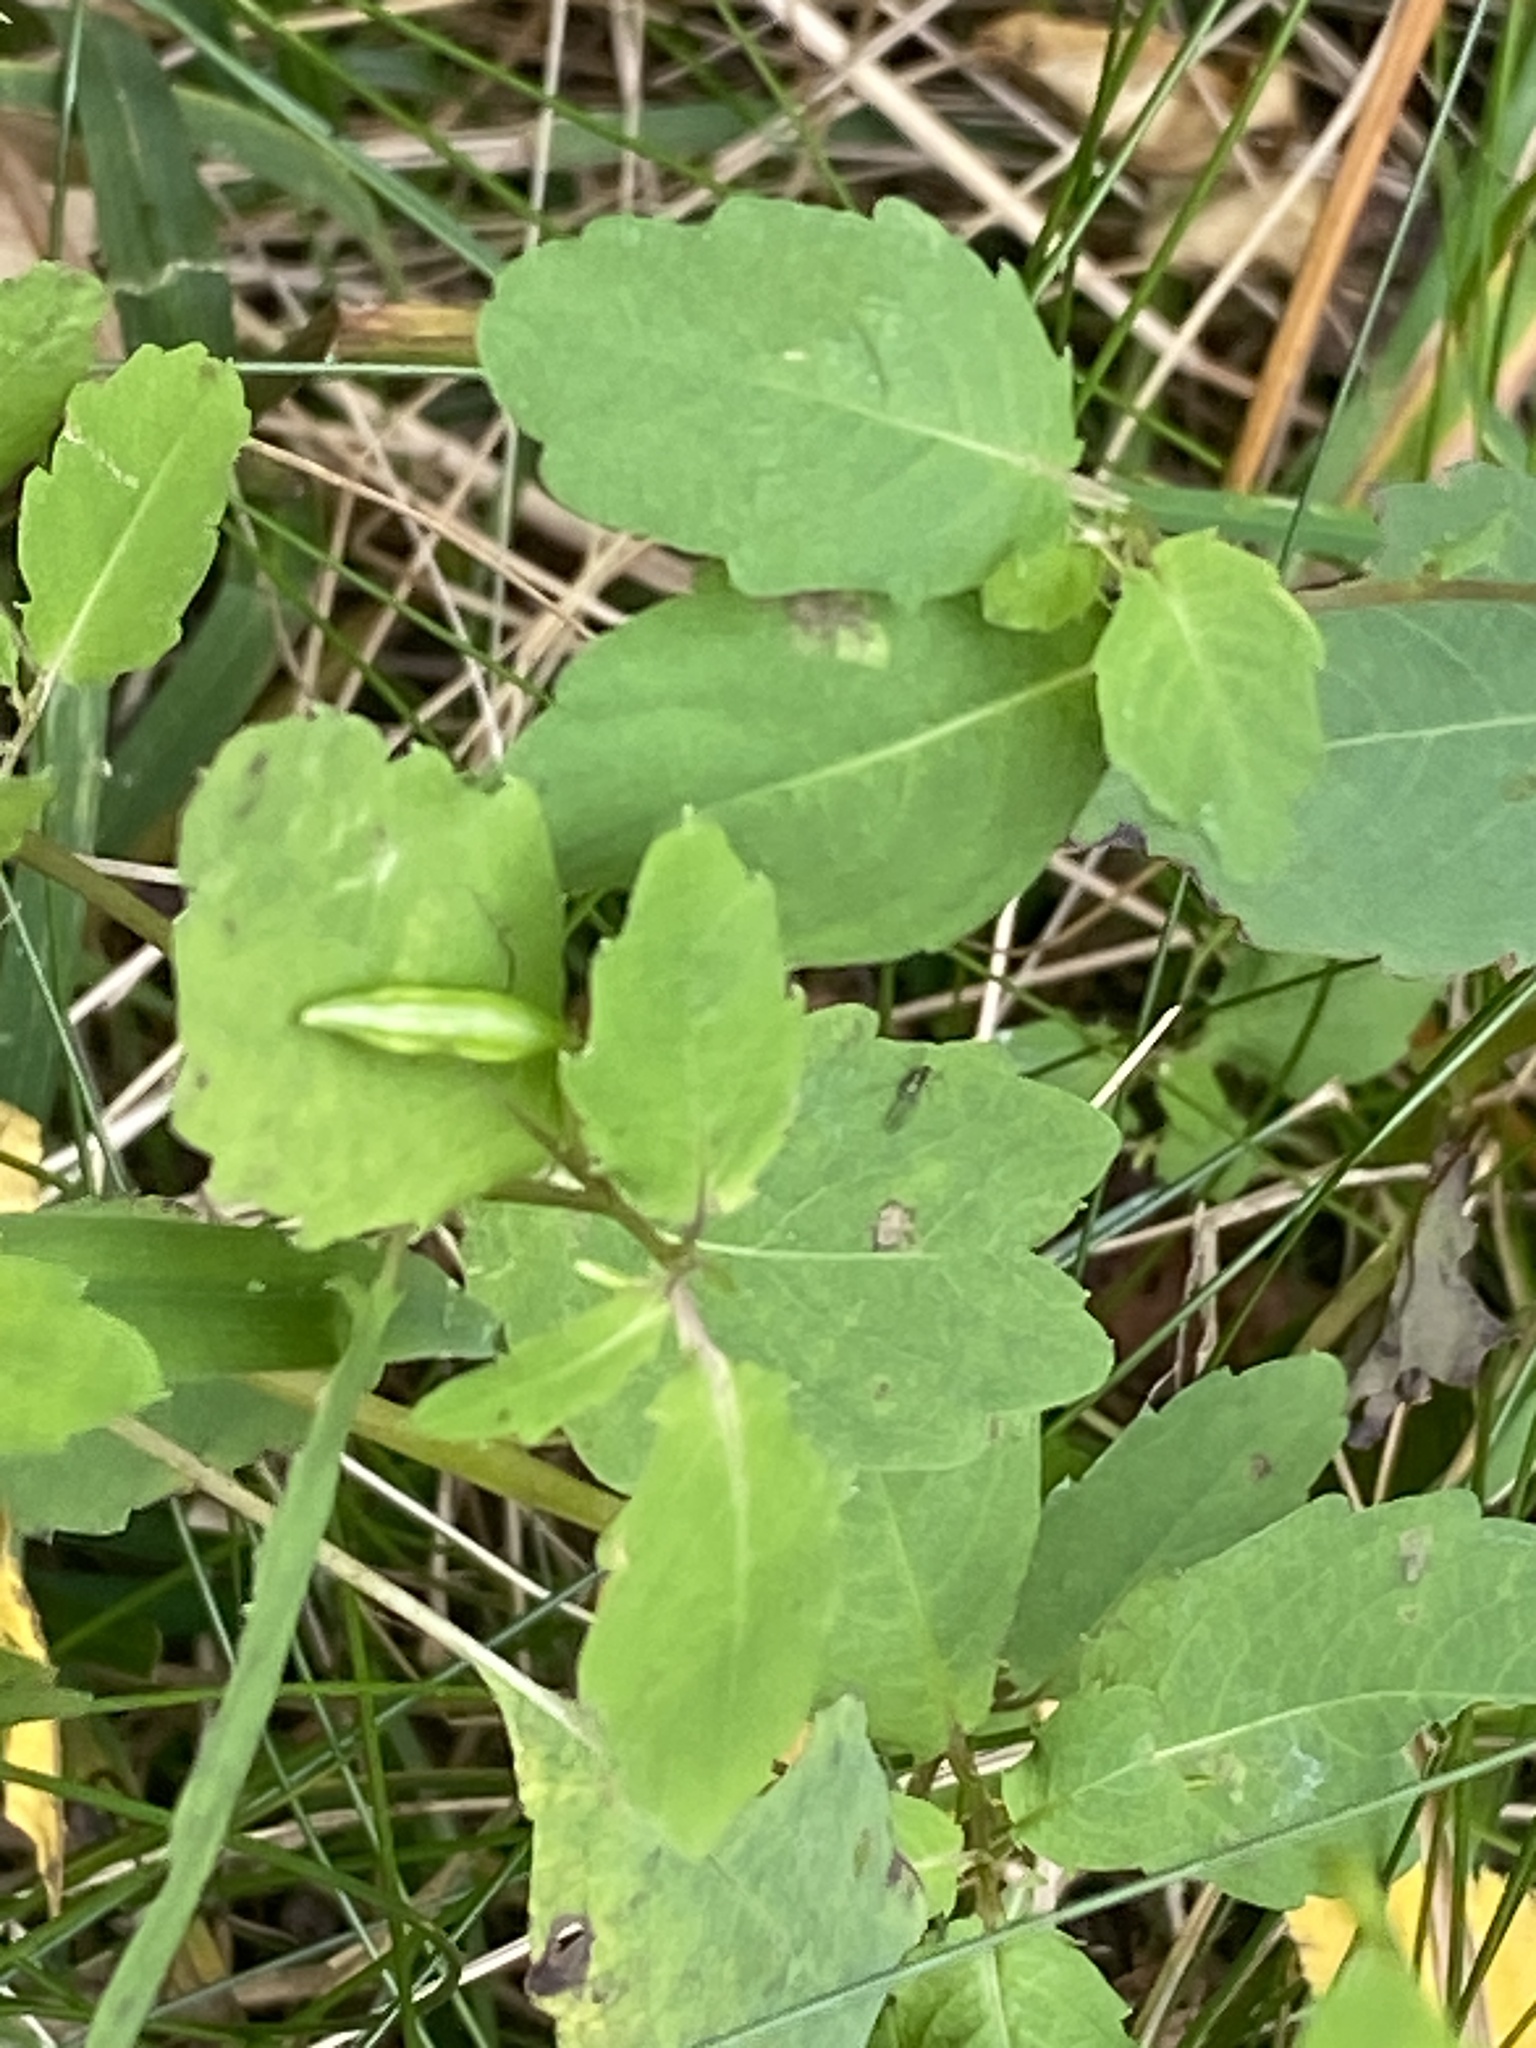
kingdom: Plantae
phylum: Tracheophyta
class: Magnoliopsida
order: Ericales
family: Balsaminaceae
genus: Impatiens
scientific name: Impatiens capensis
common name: Orange balsam
